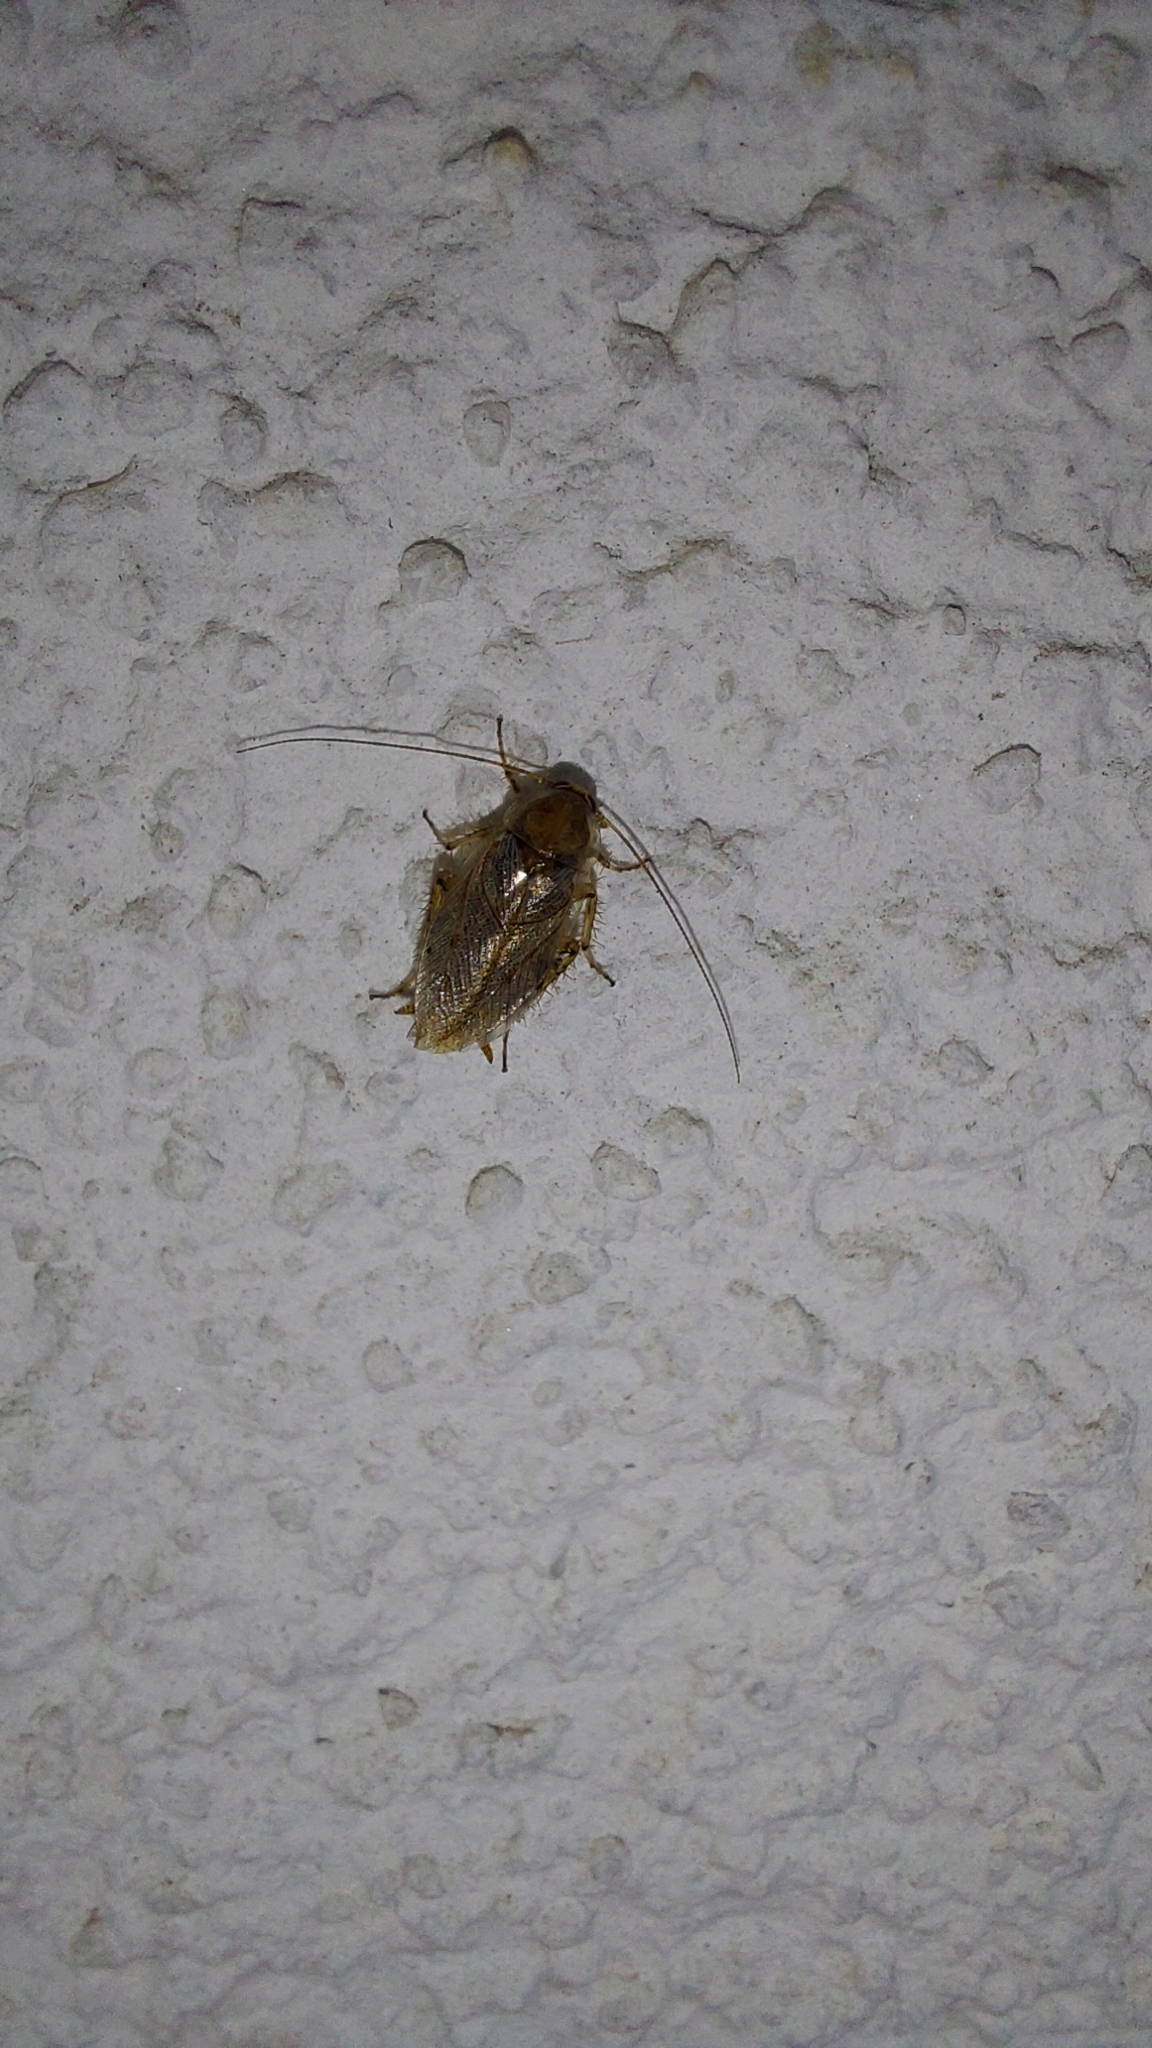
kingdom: Animalia
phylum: Arthropoda
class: Insecta
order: Blattodea
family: Ectobiidae
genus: Ectobius
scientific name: Ectobius vittiventris
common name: Garden cockroach
